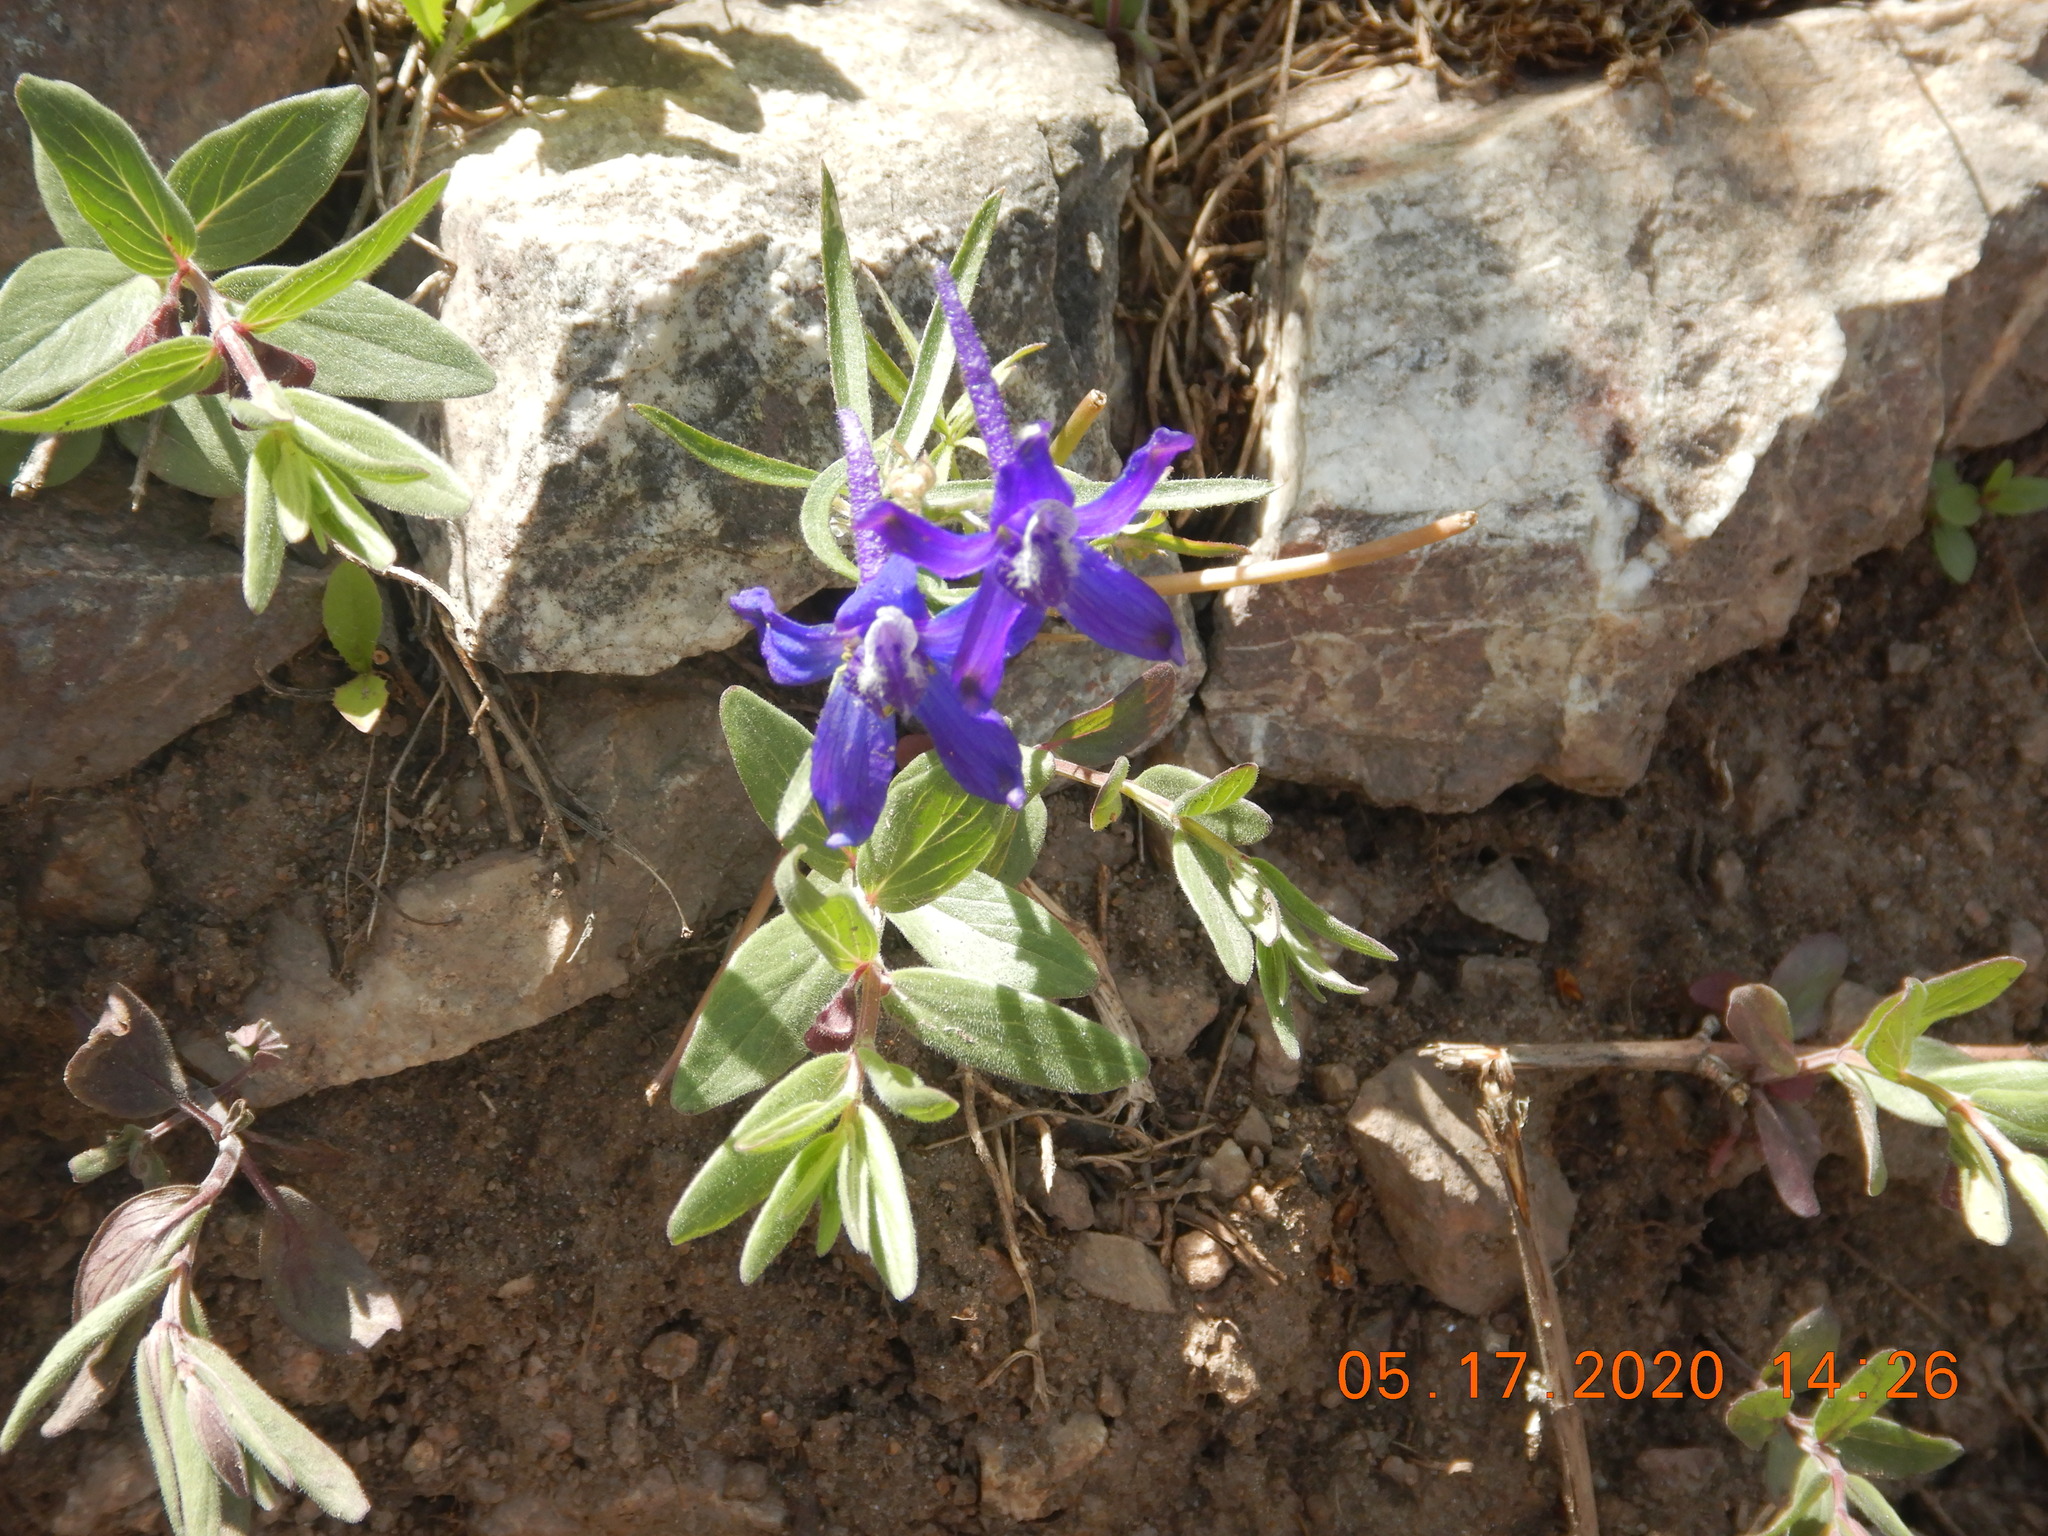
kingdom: Plantae
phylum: Tracheophyta
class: Magnoliopsida
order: Ranunculales
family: Ranunculaceae
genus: Delphinium
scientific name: Delphinium nuttallianum
